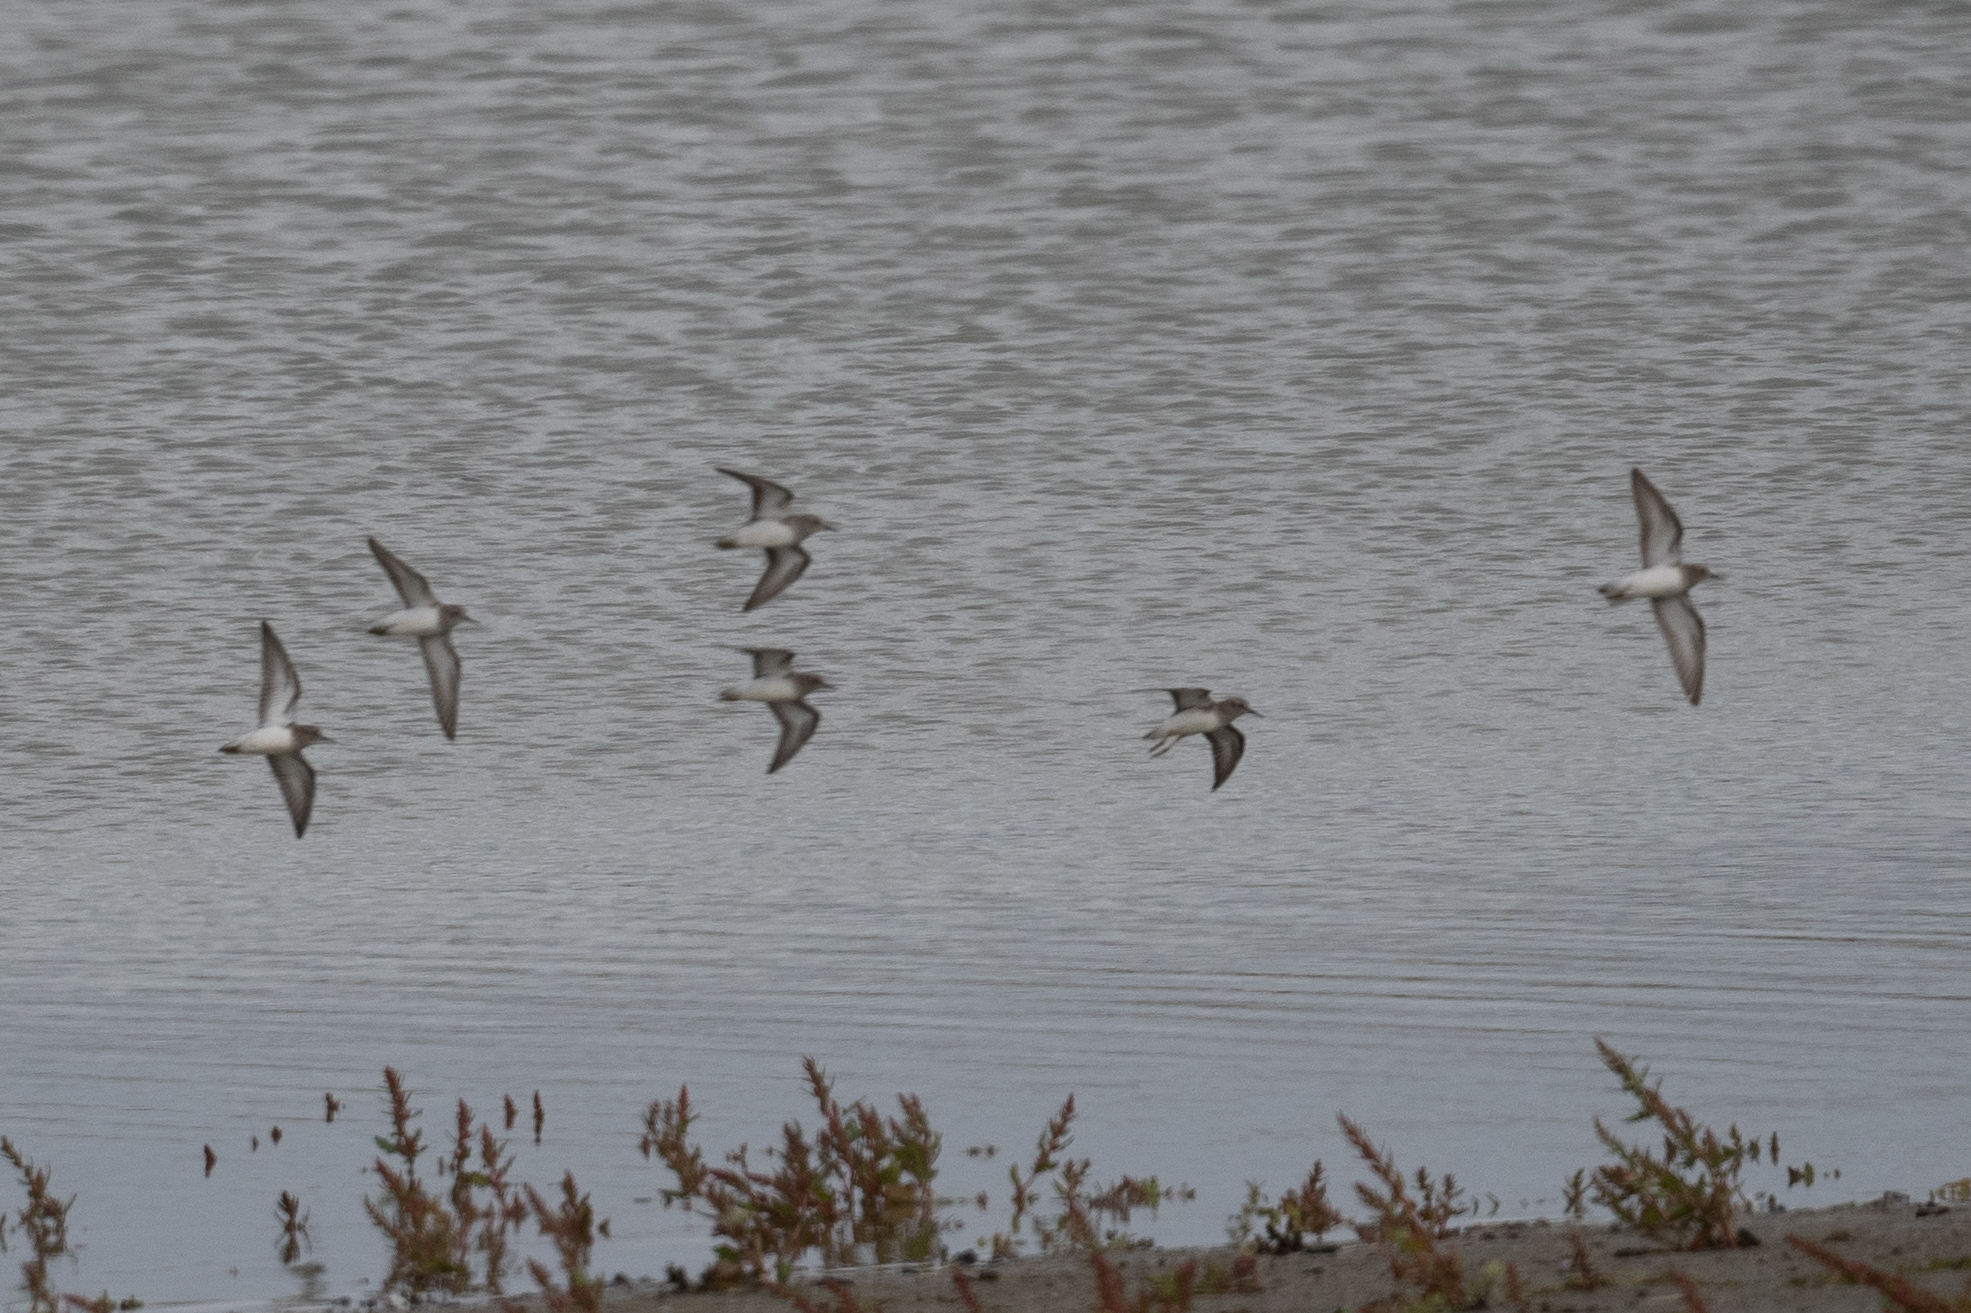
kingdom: Animalia
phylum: Chordata
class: Aves
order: Charadriiformes
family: Scolopacidae
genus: Calidris
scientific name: Calidris minutilla
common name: Least sandpiper
